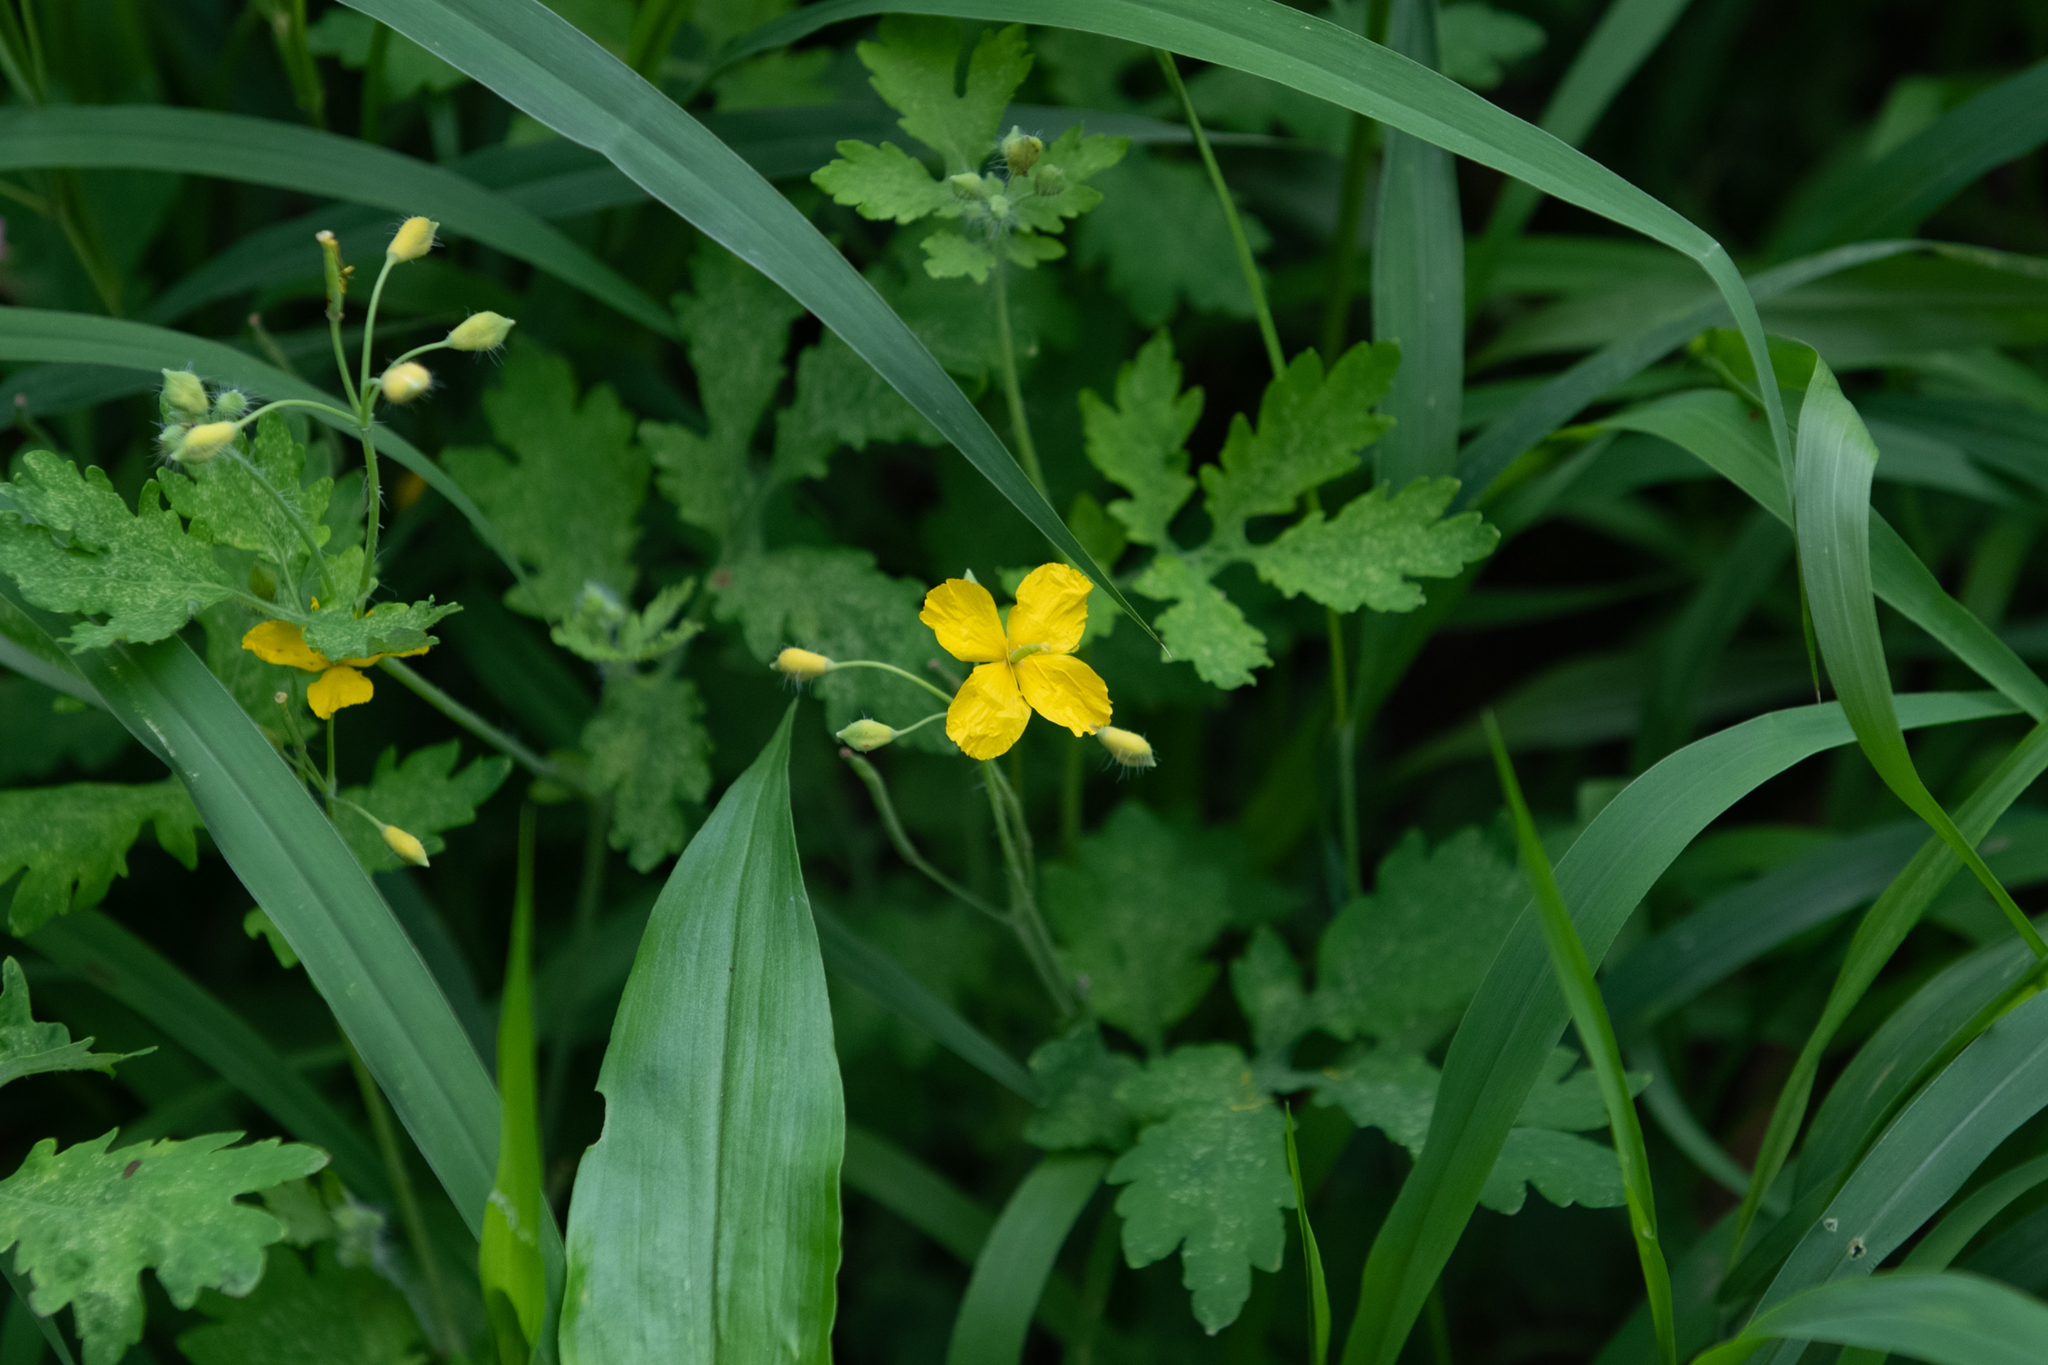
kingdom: Plantae
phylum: Tracheophyta
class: Magnoliopsida
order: Ranunculales
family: Papaveraceae
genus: Chelidonium
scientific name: Chelidonium majus
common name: Greater celandine
